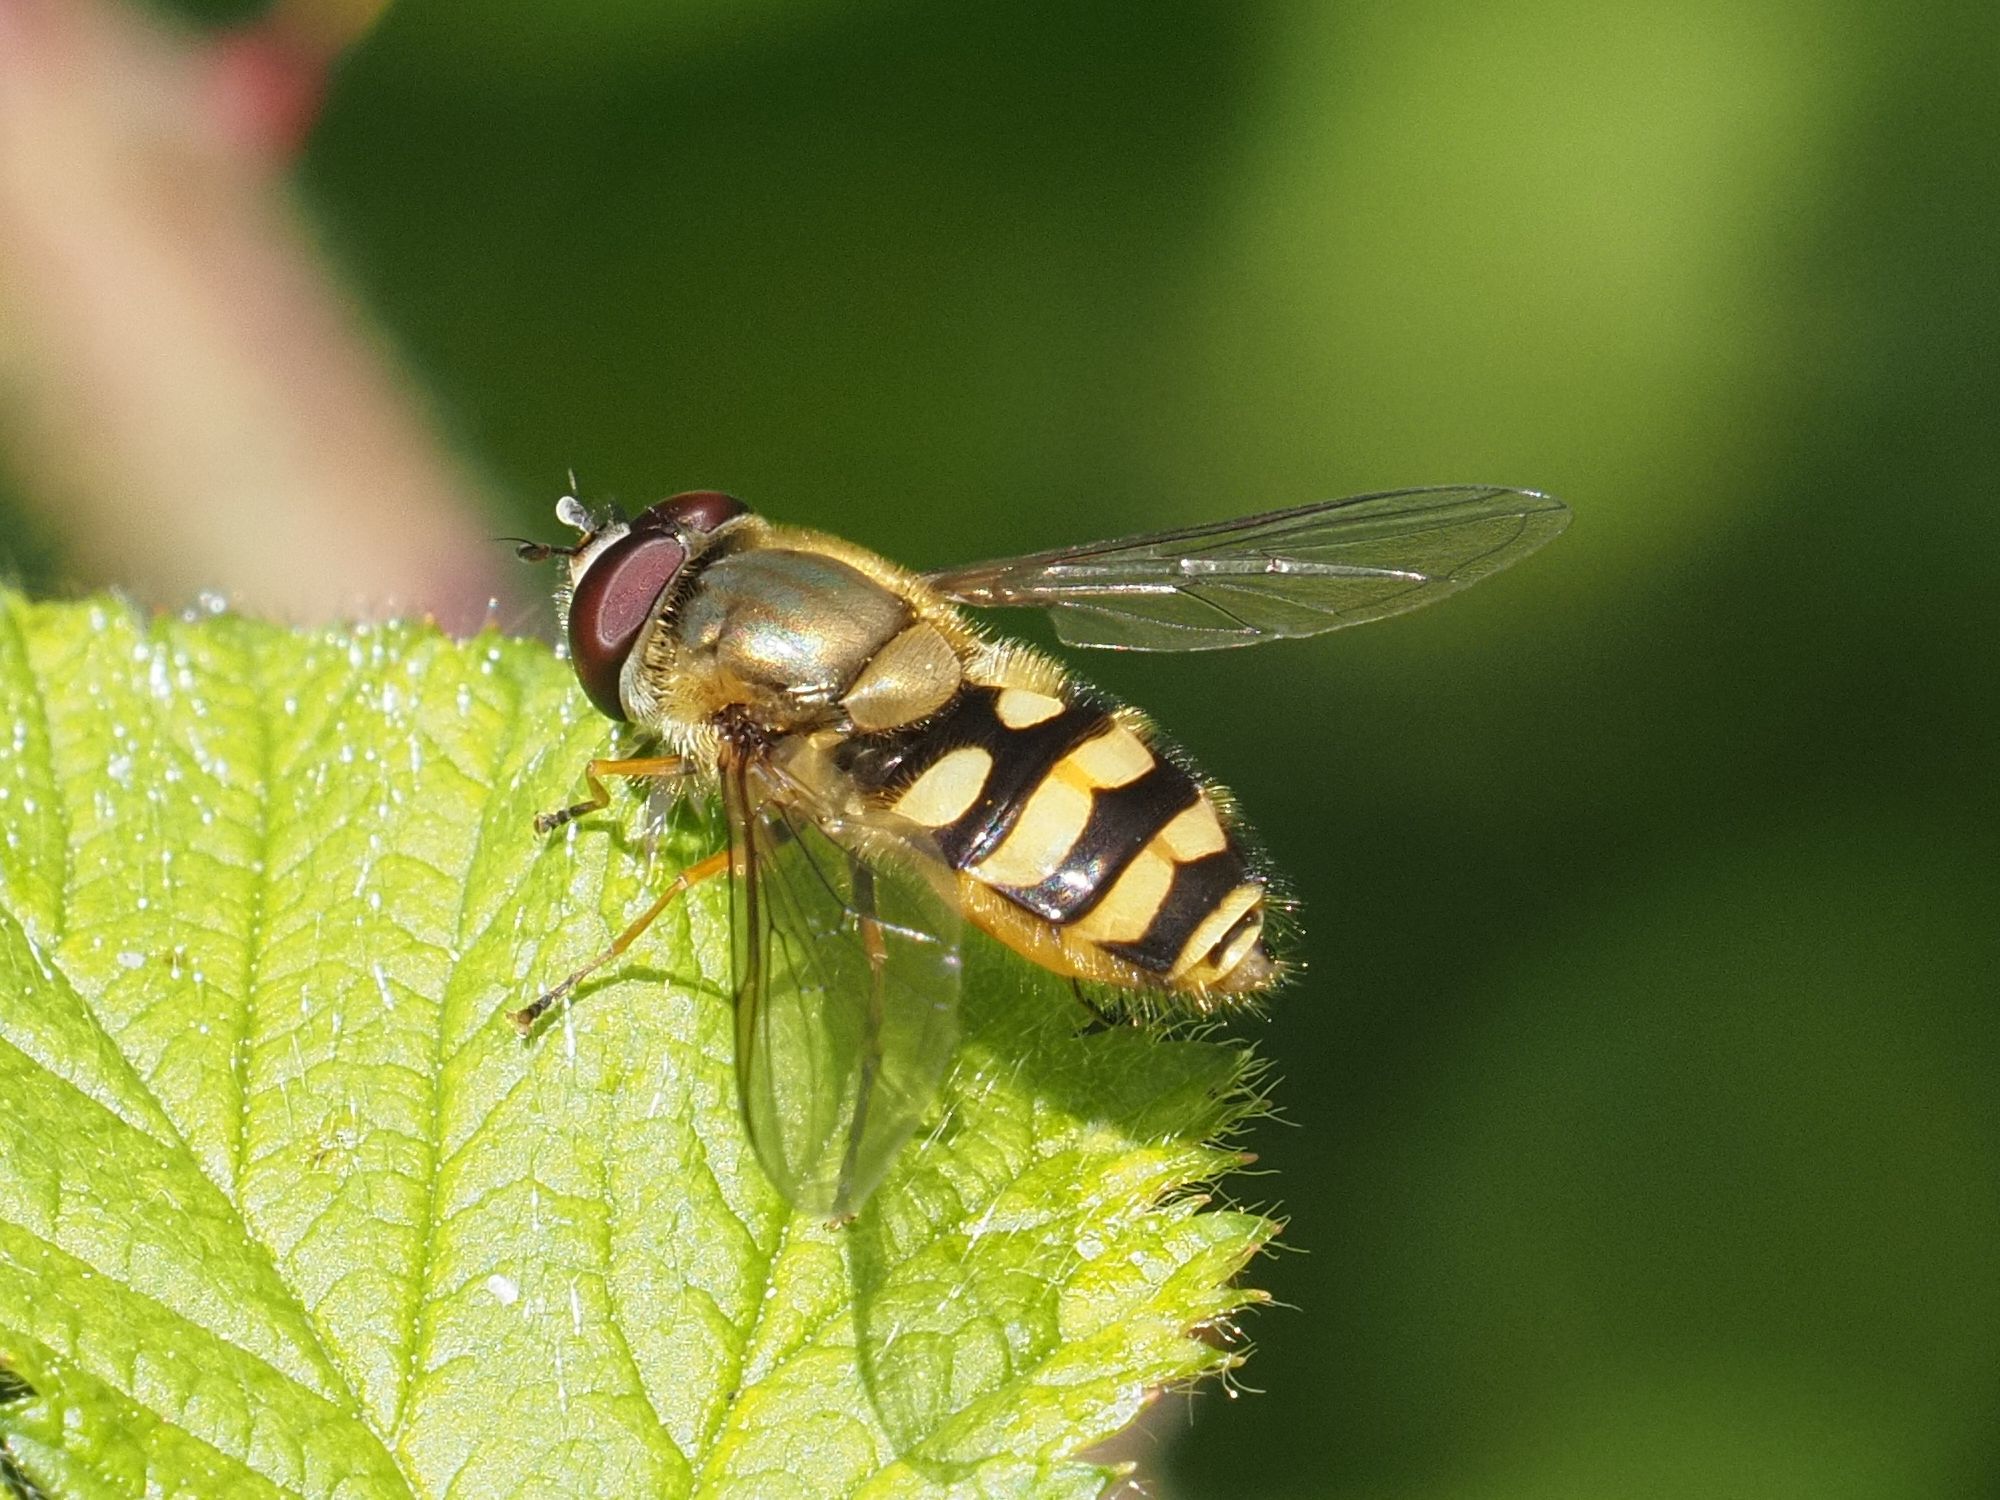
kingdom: Animalia
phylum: Arthropoda
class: Insecta
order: Diptera
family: Syrphidae
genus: Syrphus
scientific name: Syrphus
